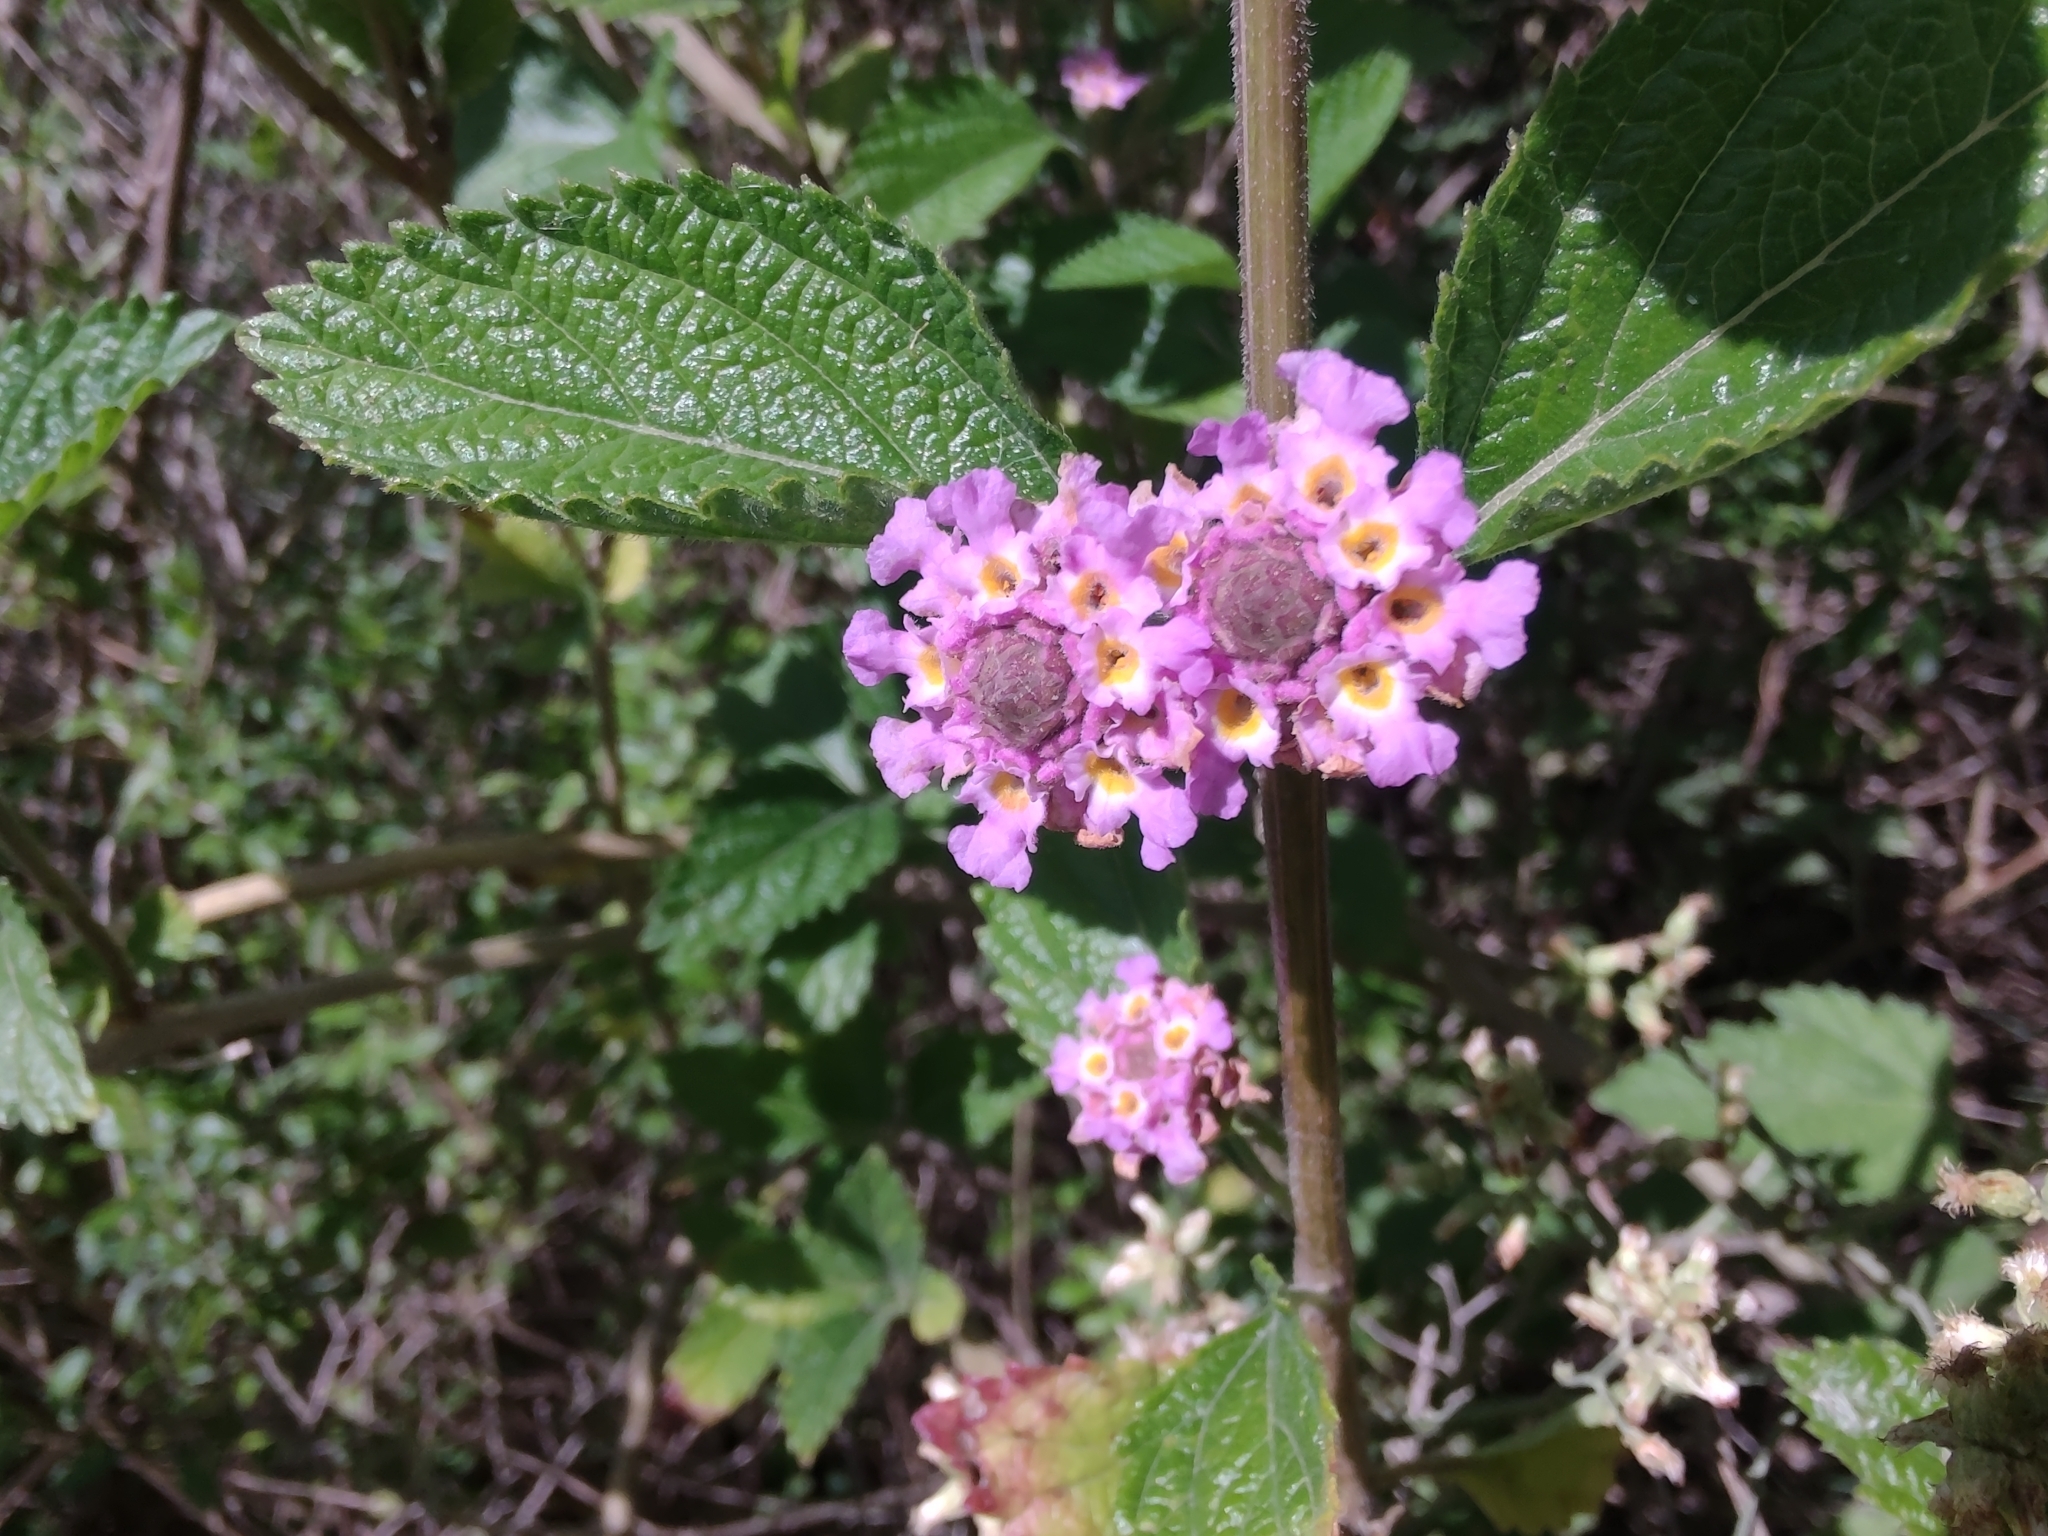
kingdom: Plantae
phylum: Tracheophyta
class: Magnoliopsida
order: Lamiales
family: Verbenaceae
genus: Lippia
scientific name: Lippia alba
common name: Bushy matgrass
